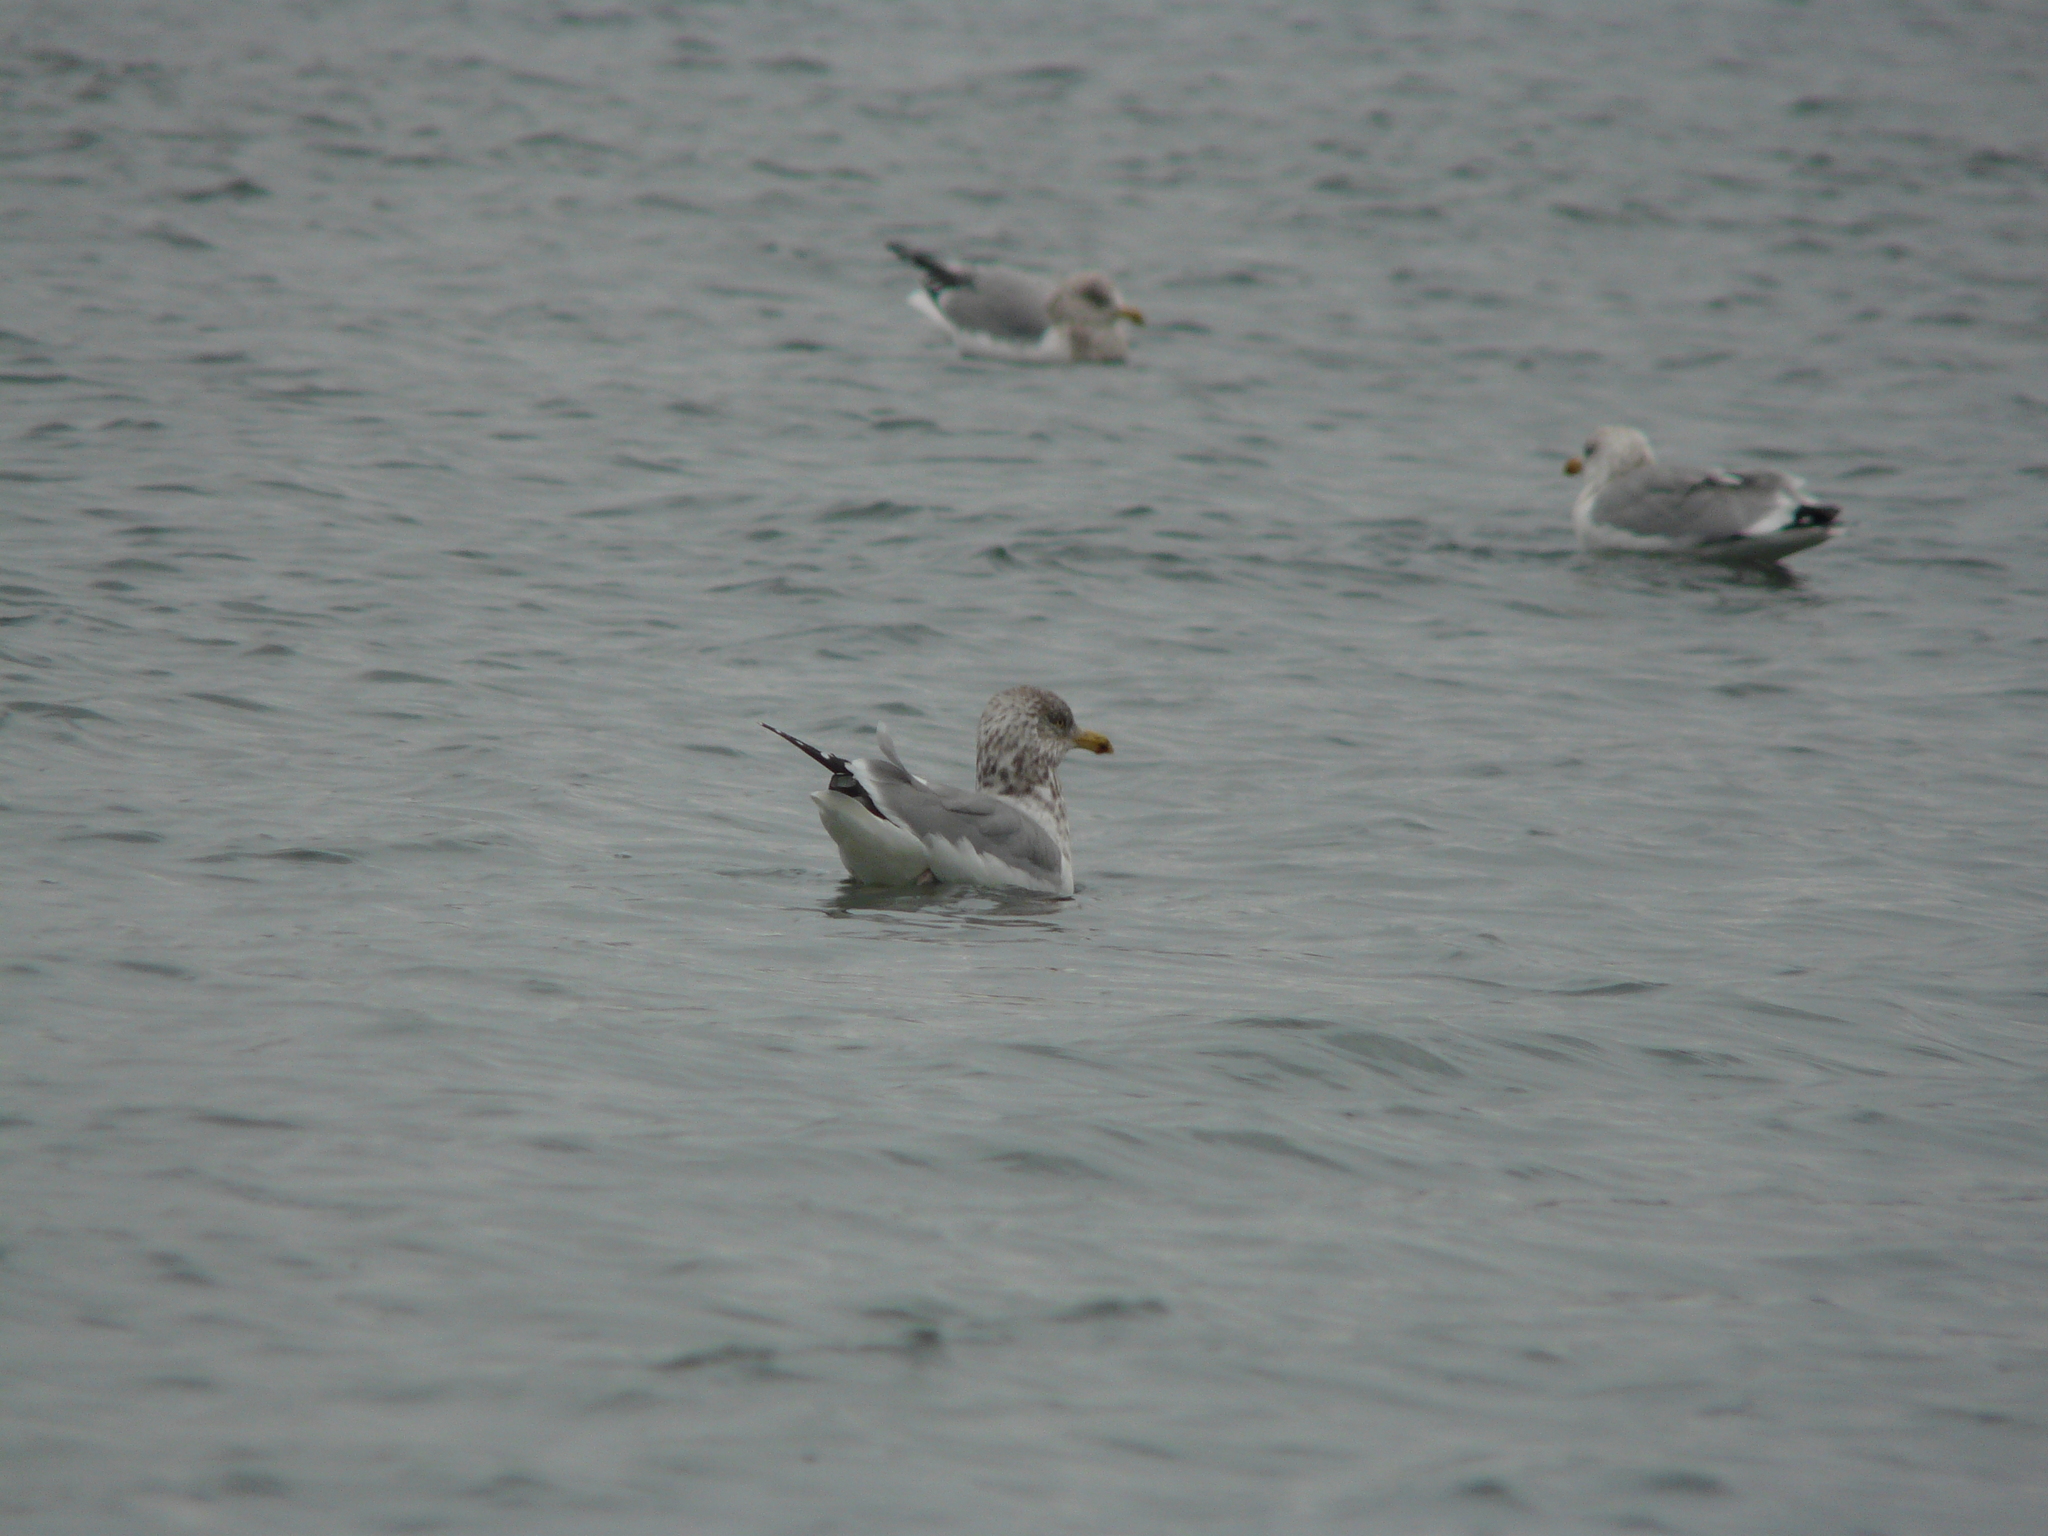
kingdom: Animalia
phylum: Chordata
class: Aves
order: Charadriiformes
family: Laridae
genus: Larus
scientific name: Larus smithsonianus
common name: American herring gull
